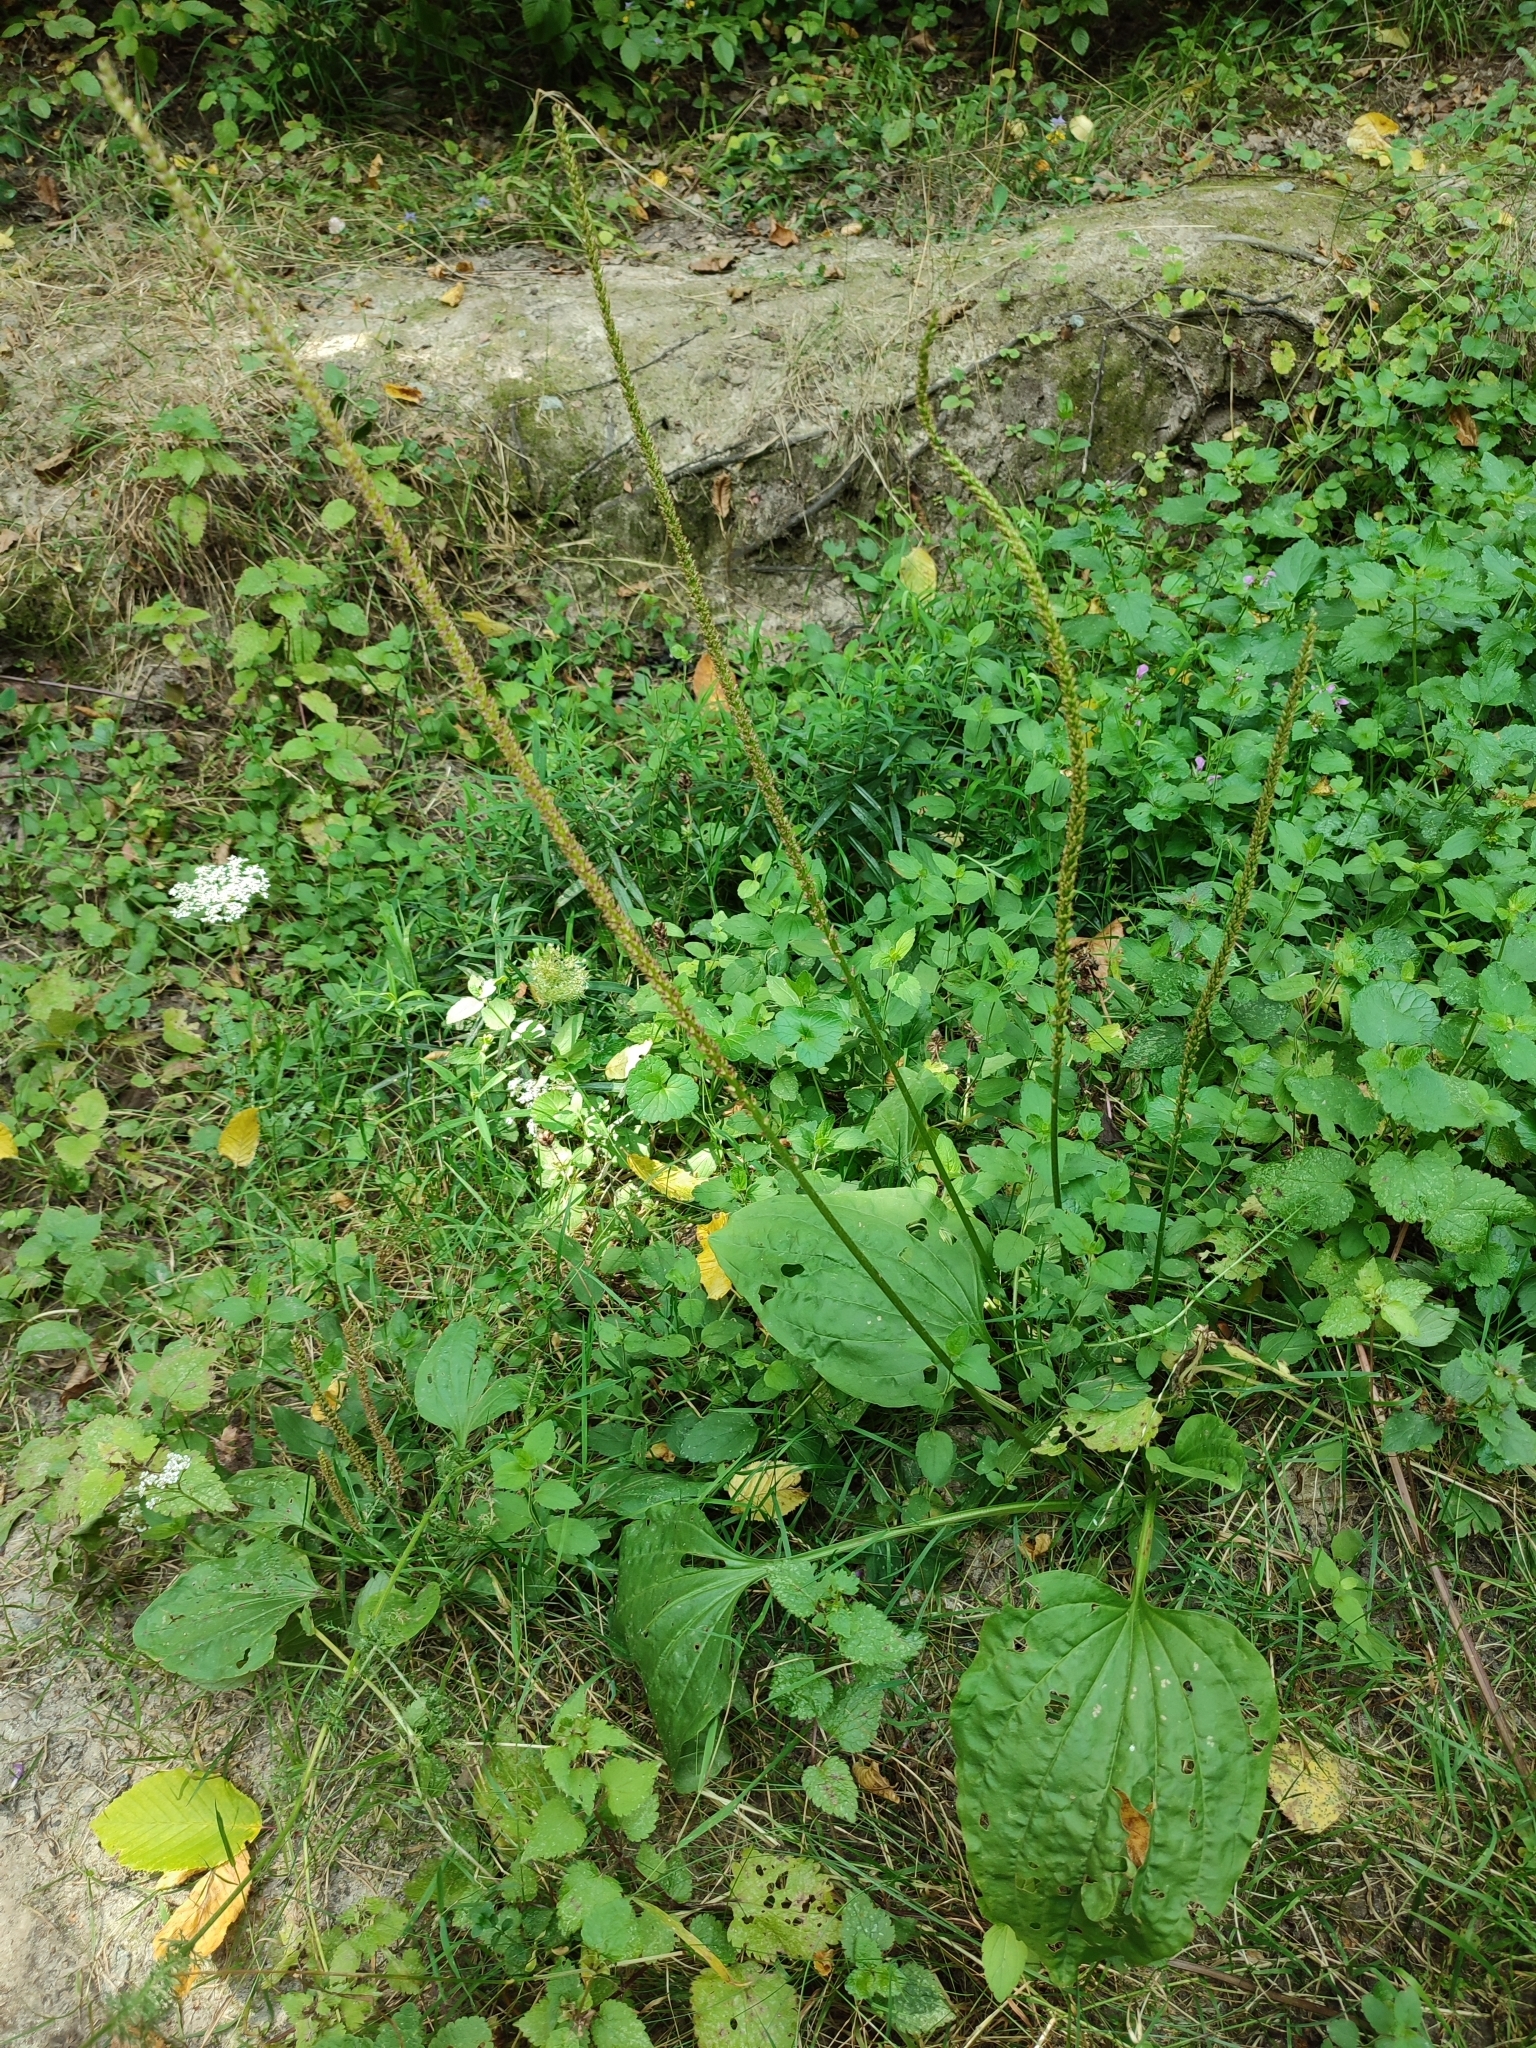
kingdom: Plantae
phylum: Tracheophyta
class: Magnoliopsida
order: Lamiales
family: Plantaginaceae
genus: Plantago
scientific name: Plantago major
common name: Common plantain
